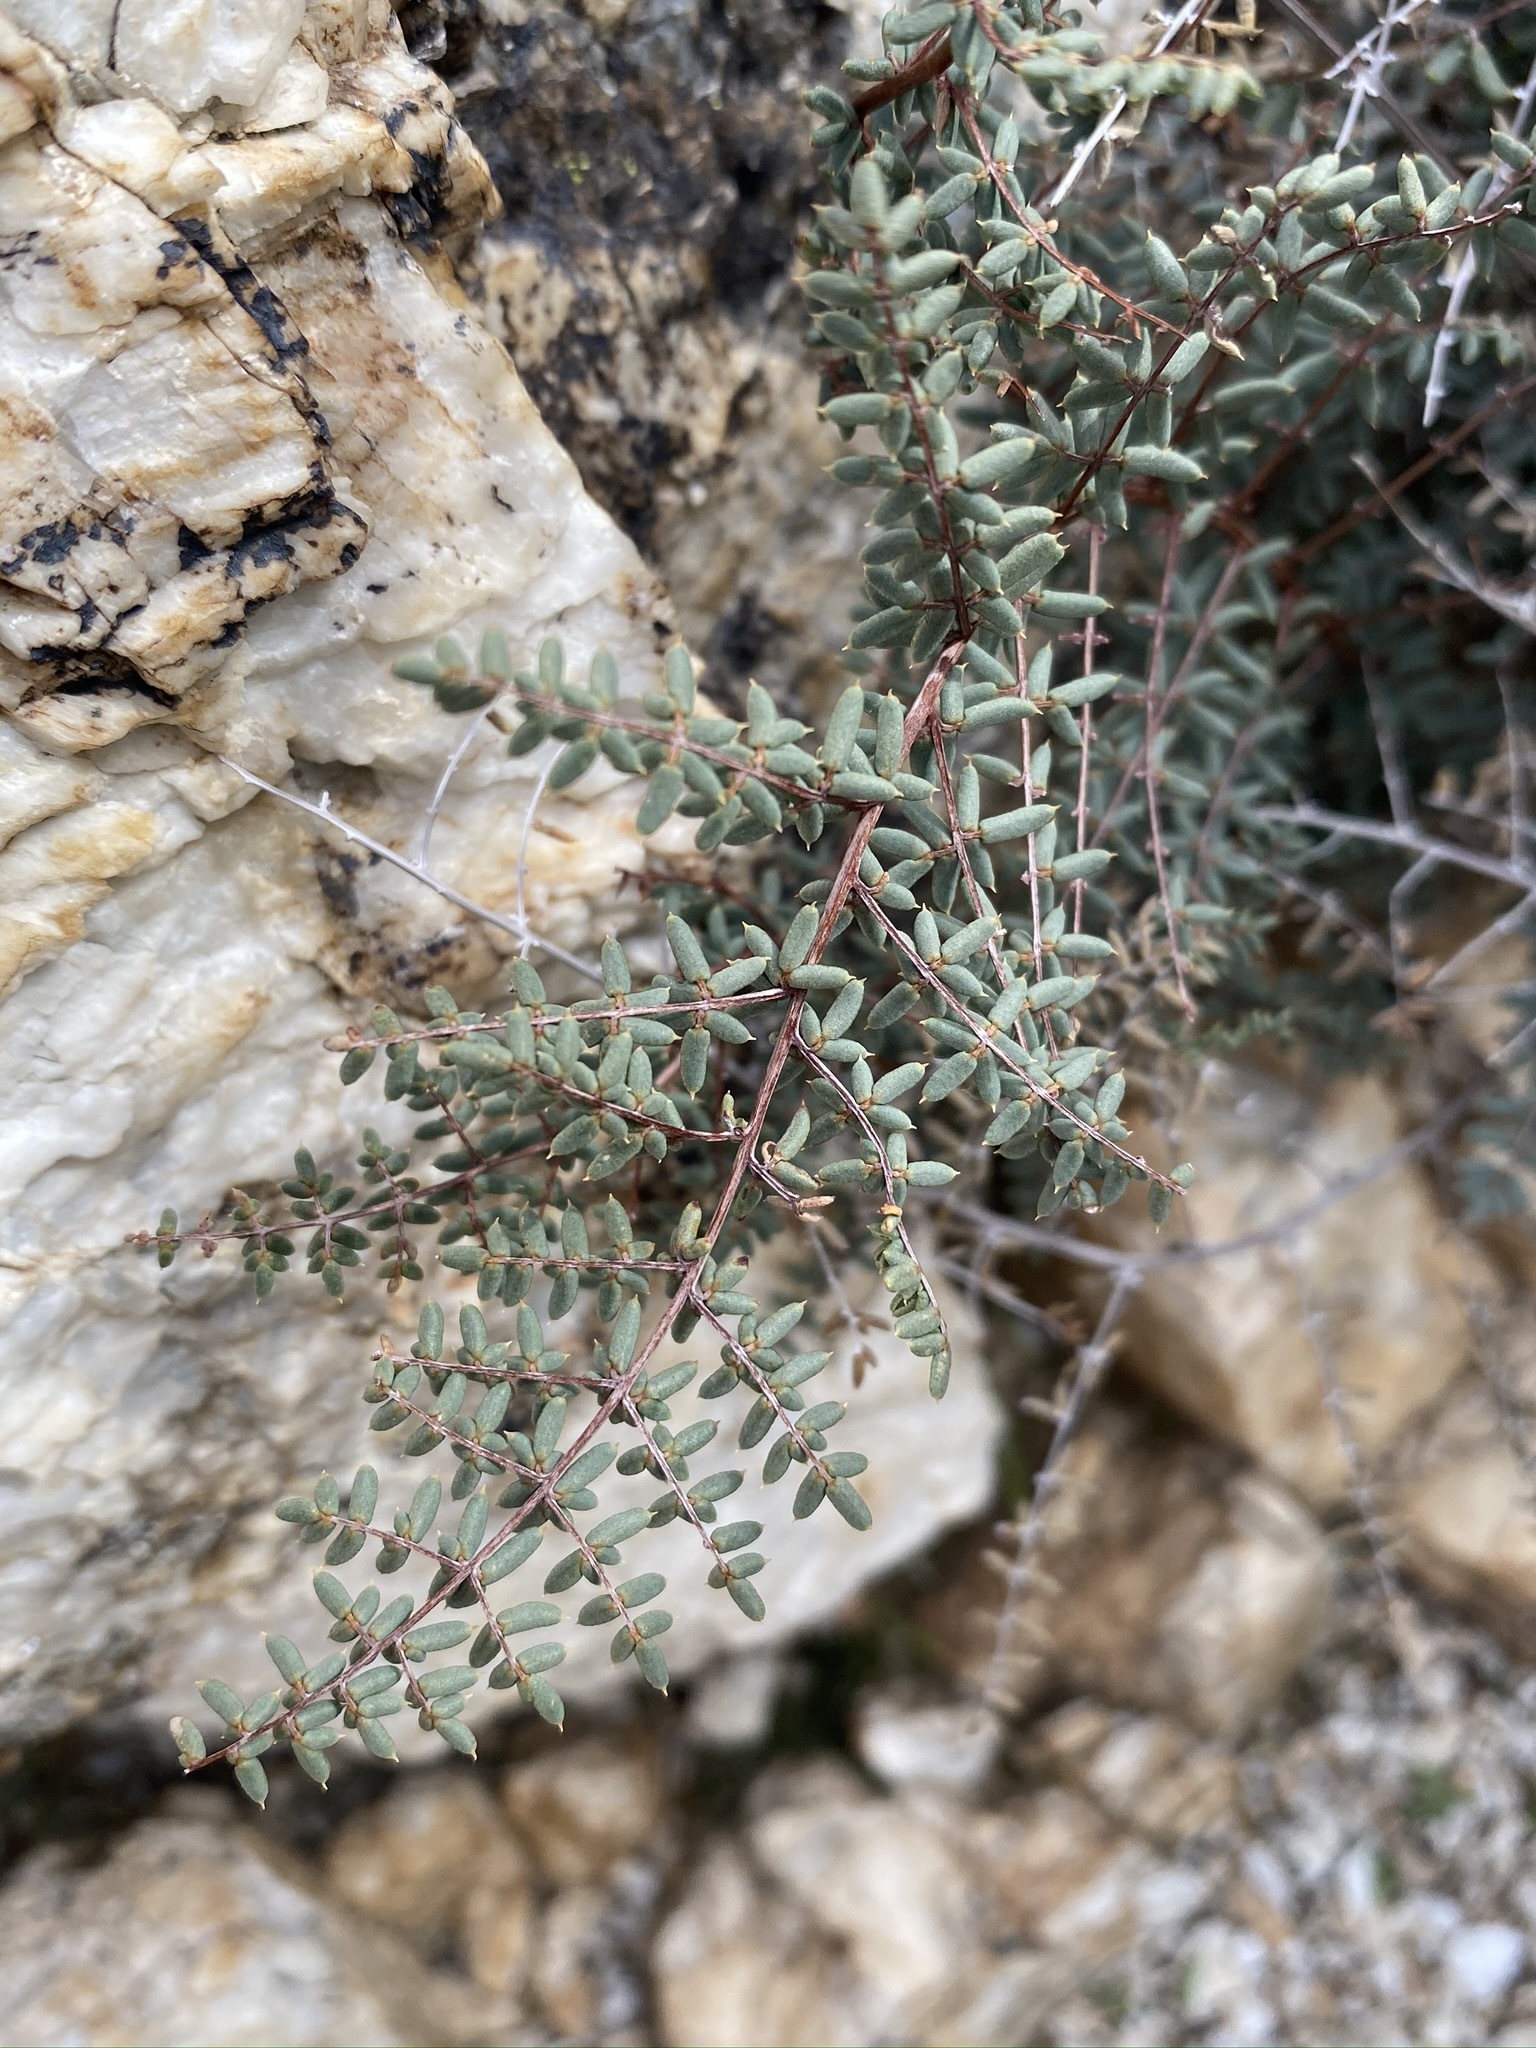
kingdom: Plantae
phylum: Tracheophyta
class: Polypodiopsida
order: Polypodiales
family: Pteridaceae
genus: Pellaea
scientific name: Pellaea mucronata
